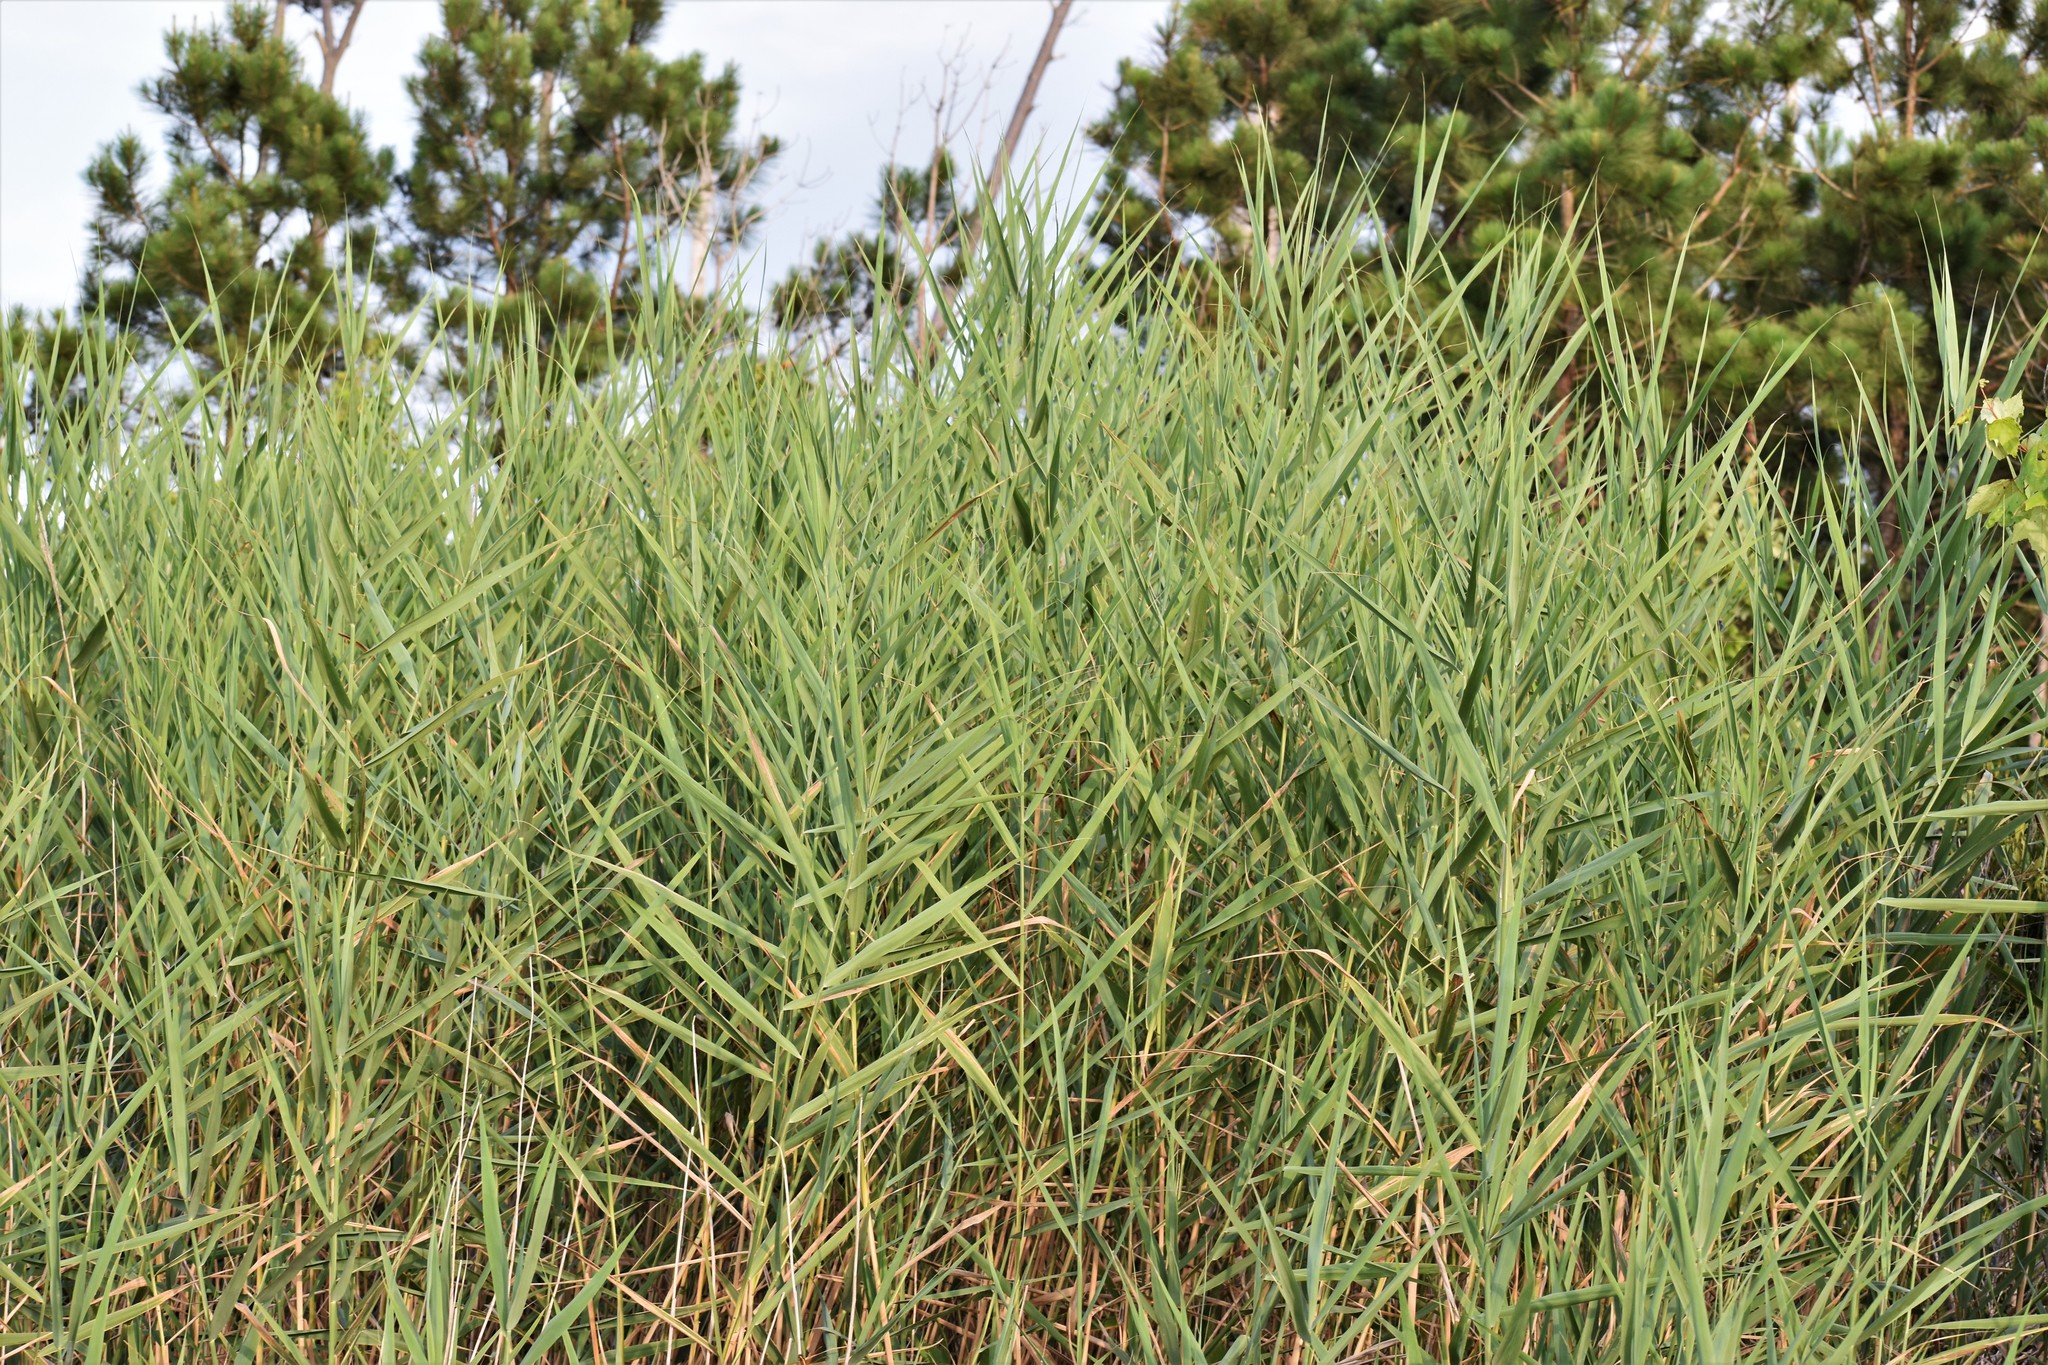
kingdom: Plantae
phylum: Tracheophyta
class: Liliopsida
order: Poales
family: Poaceae
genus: Phragmites
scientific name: Phragmites australis
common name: Common reed
